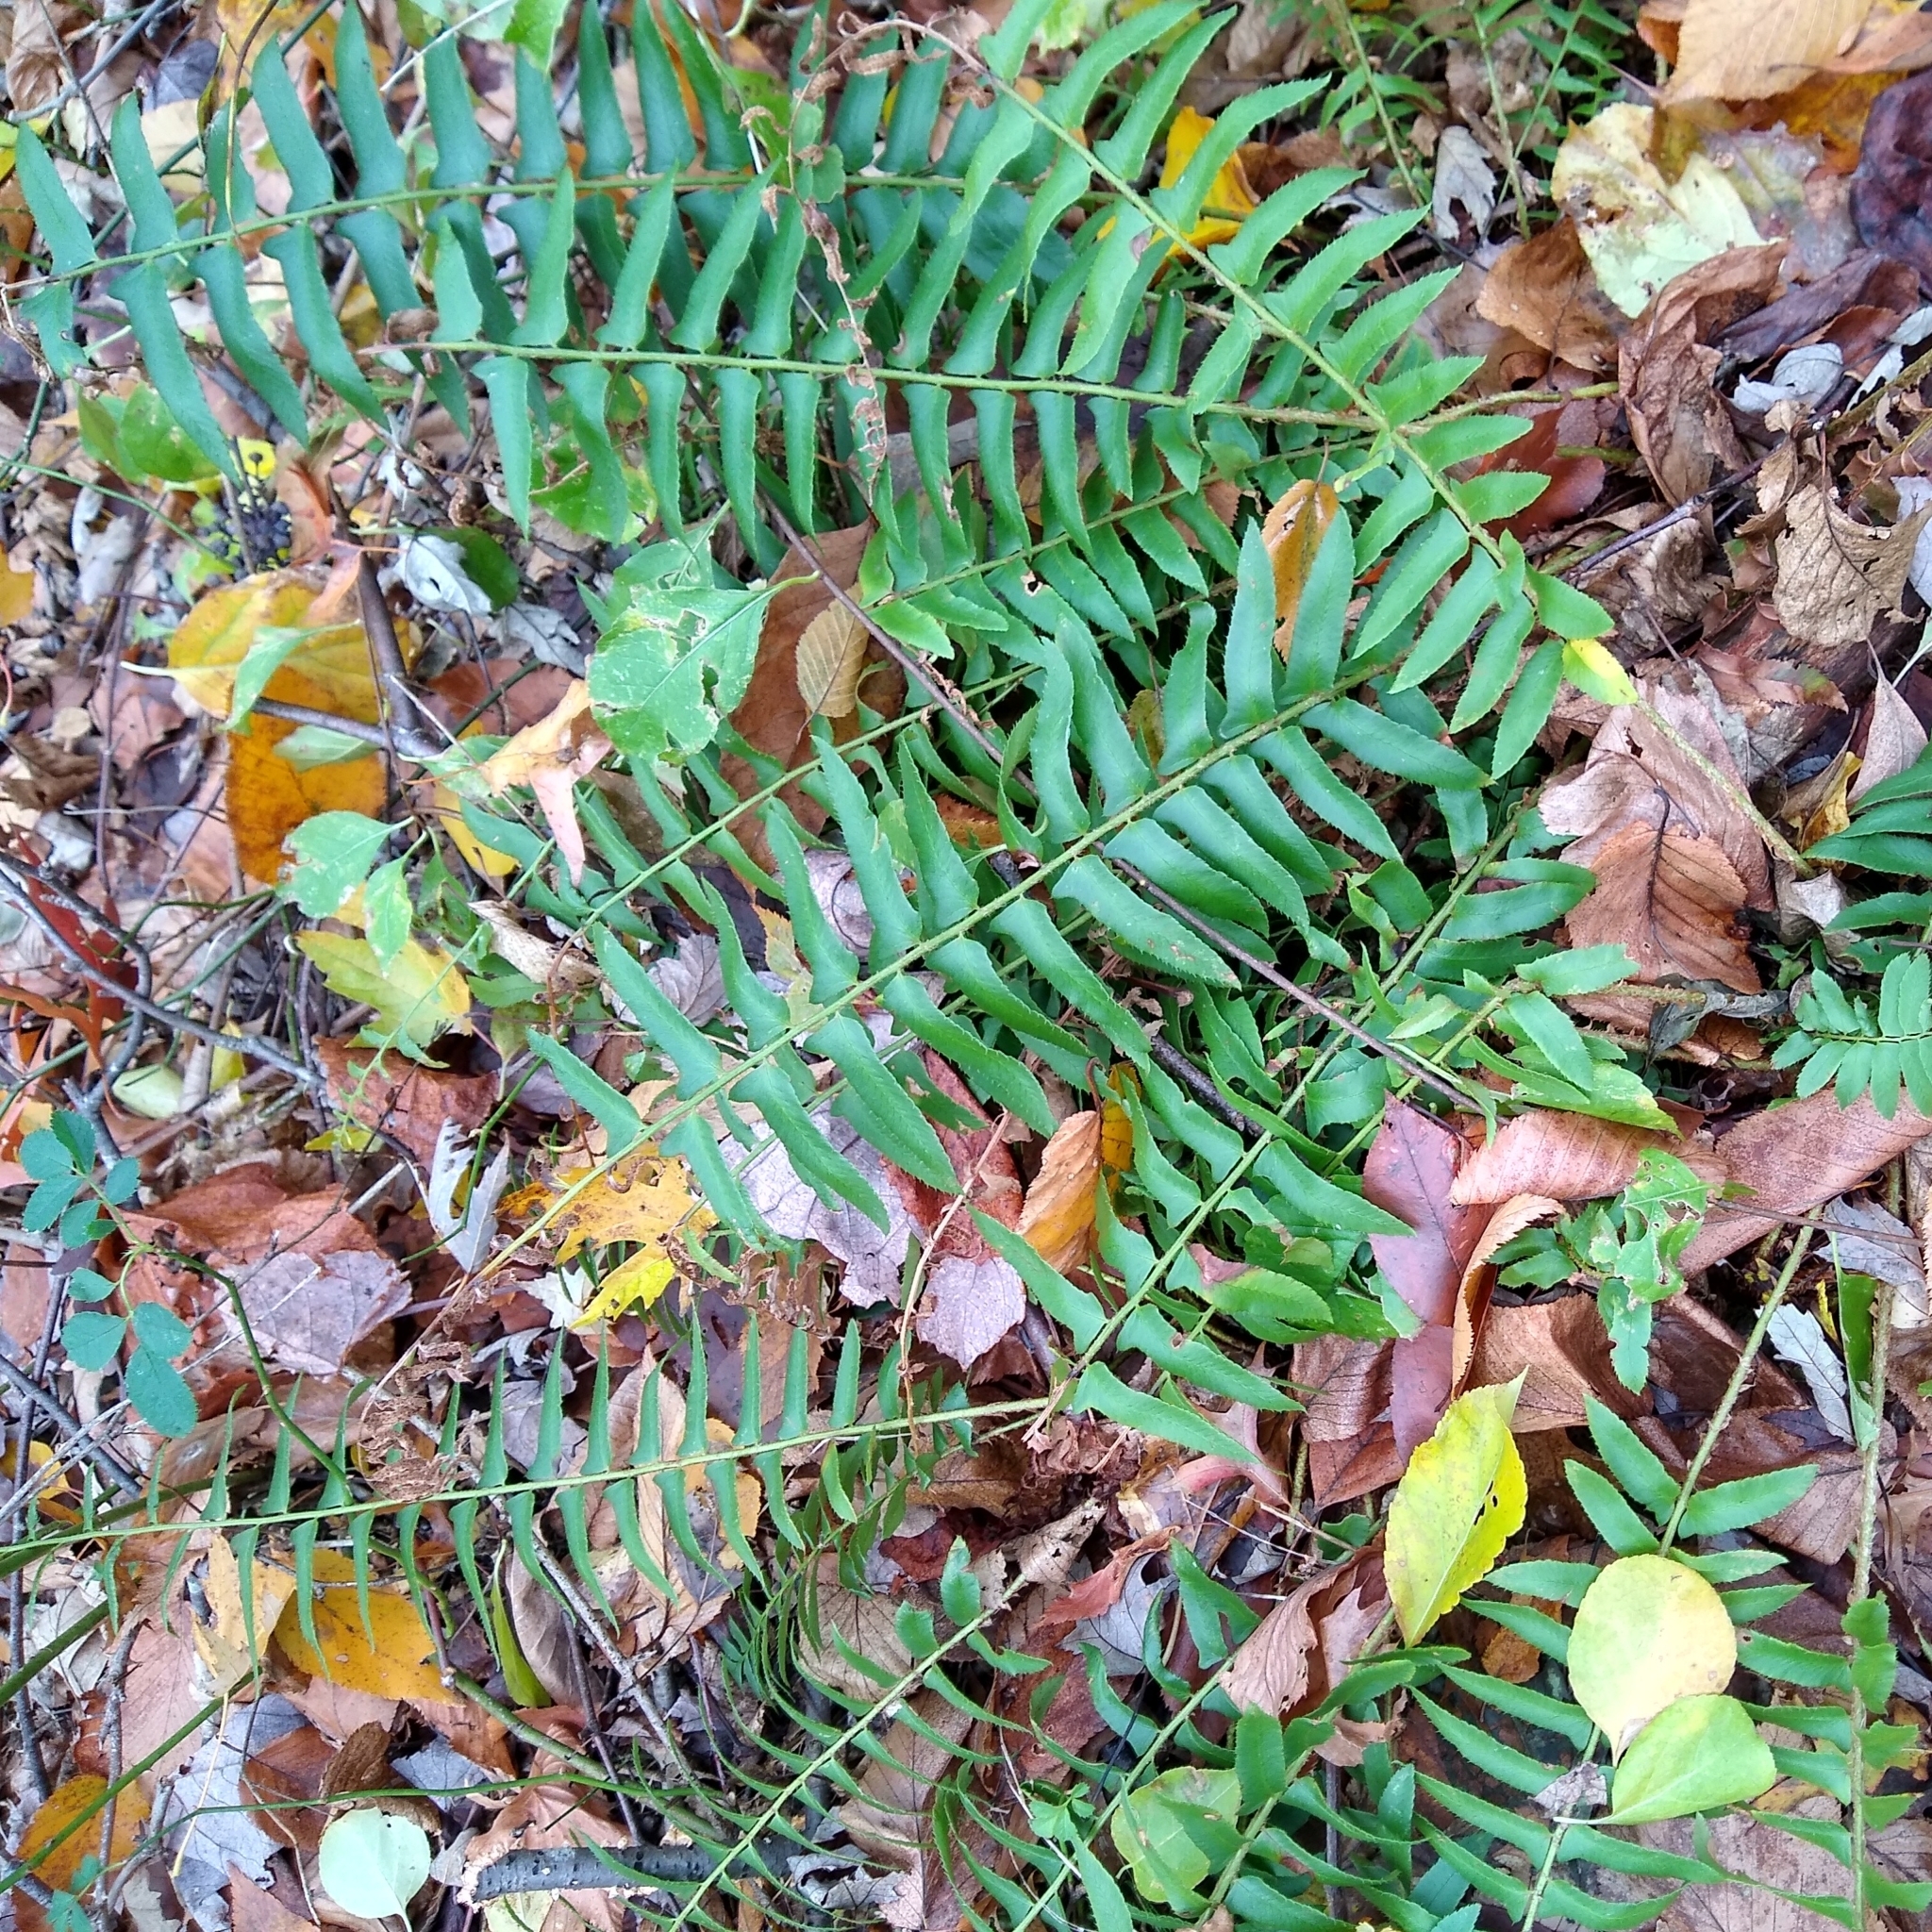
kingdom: Plantae
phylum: Tracheophyta
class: Polypodiopsida
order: Polypodiales
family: Dryopteridaceae
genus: Polystichum
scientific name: Polystichum acrostichoides
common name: Christmas fern
